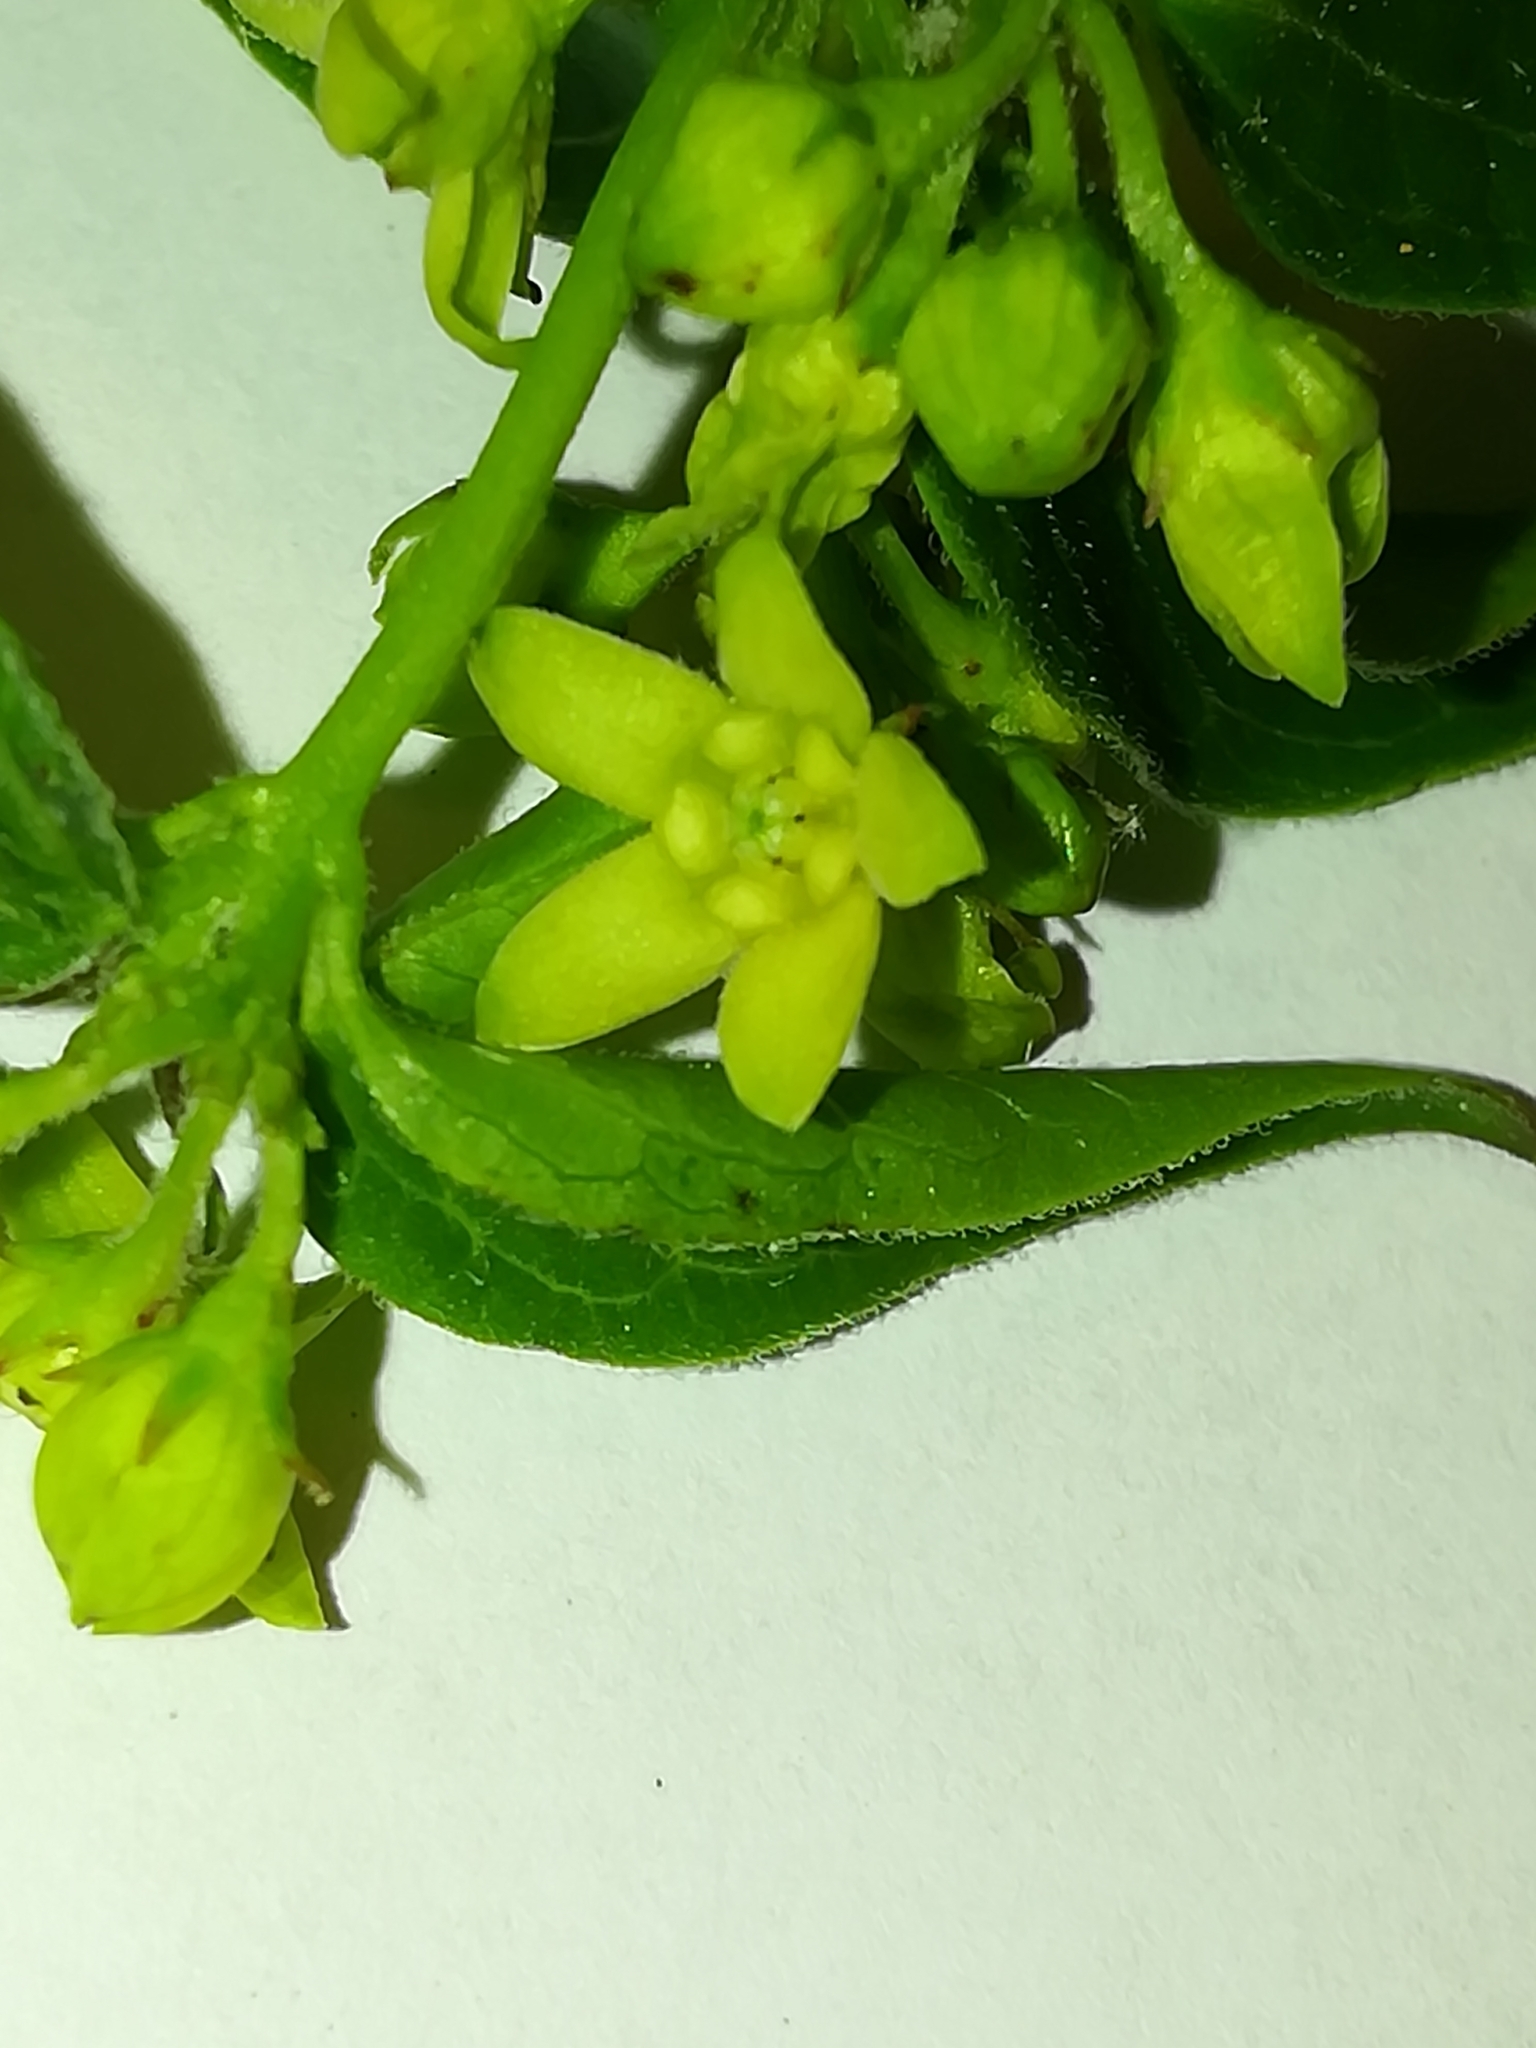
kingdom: Plantae
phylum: Tracheophyta
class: Magnoliopsida
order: Gentianales
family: Apocynaceae
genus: Vincetoxicum
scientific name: Vincetoxicum hirundinaria
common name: White swallowwort
